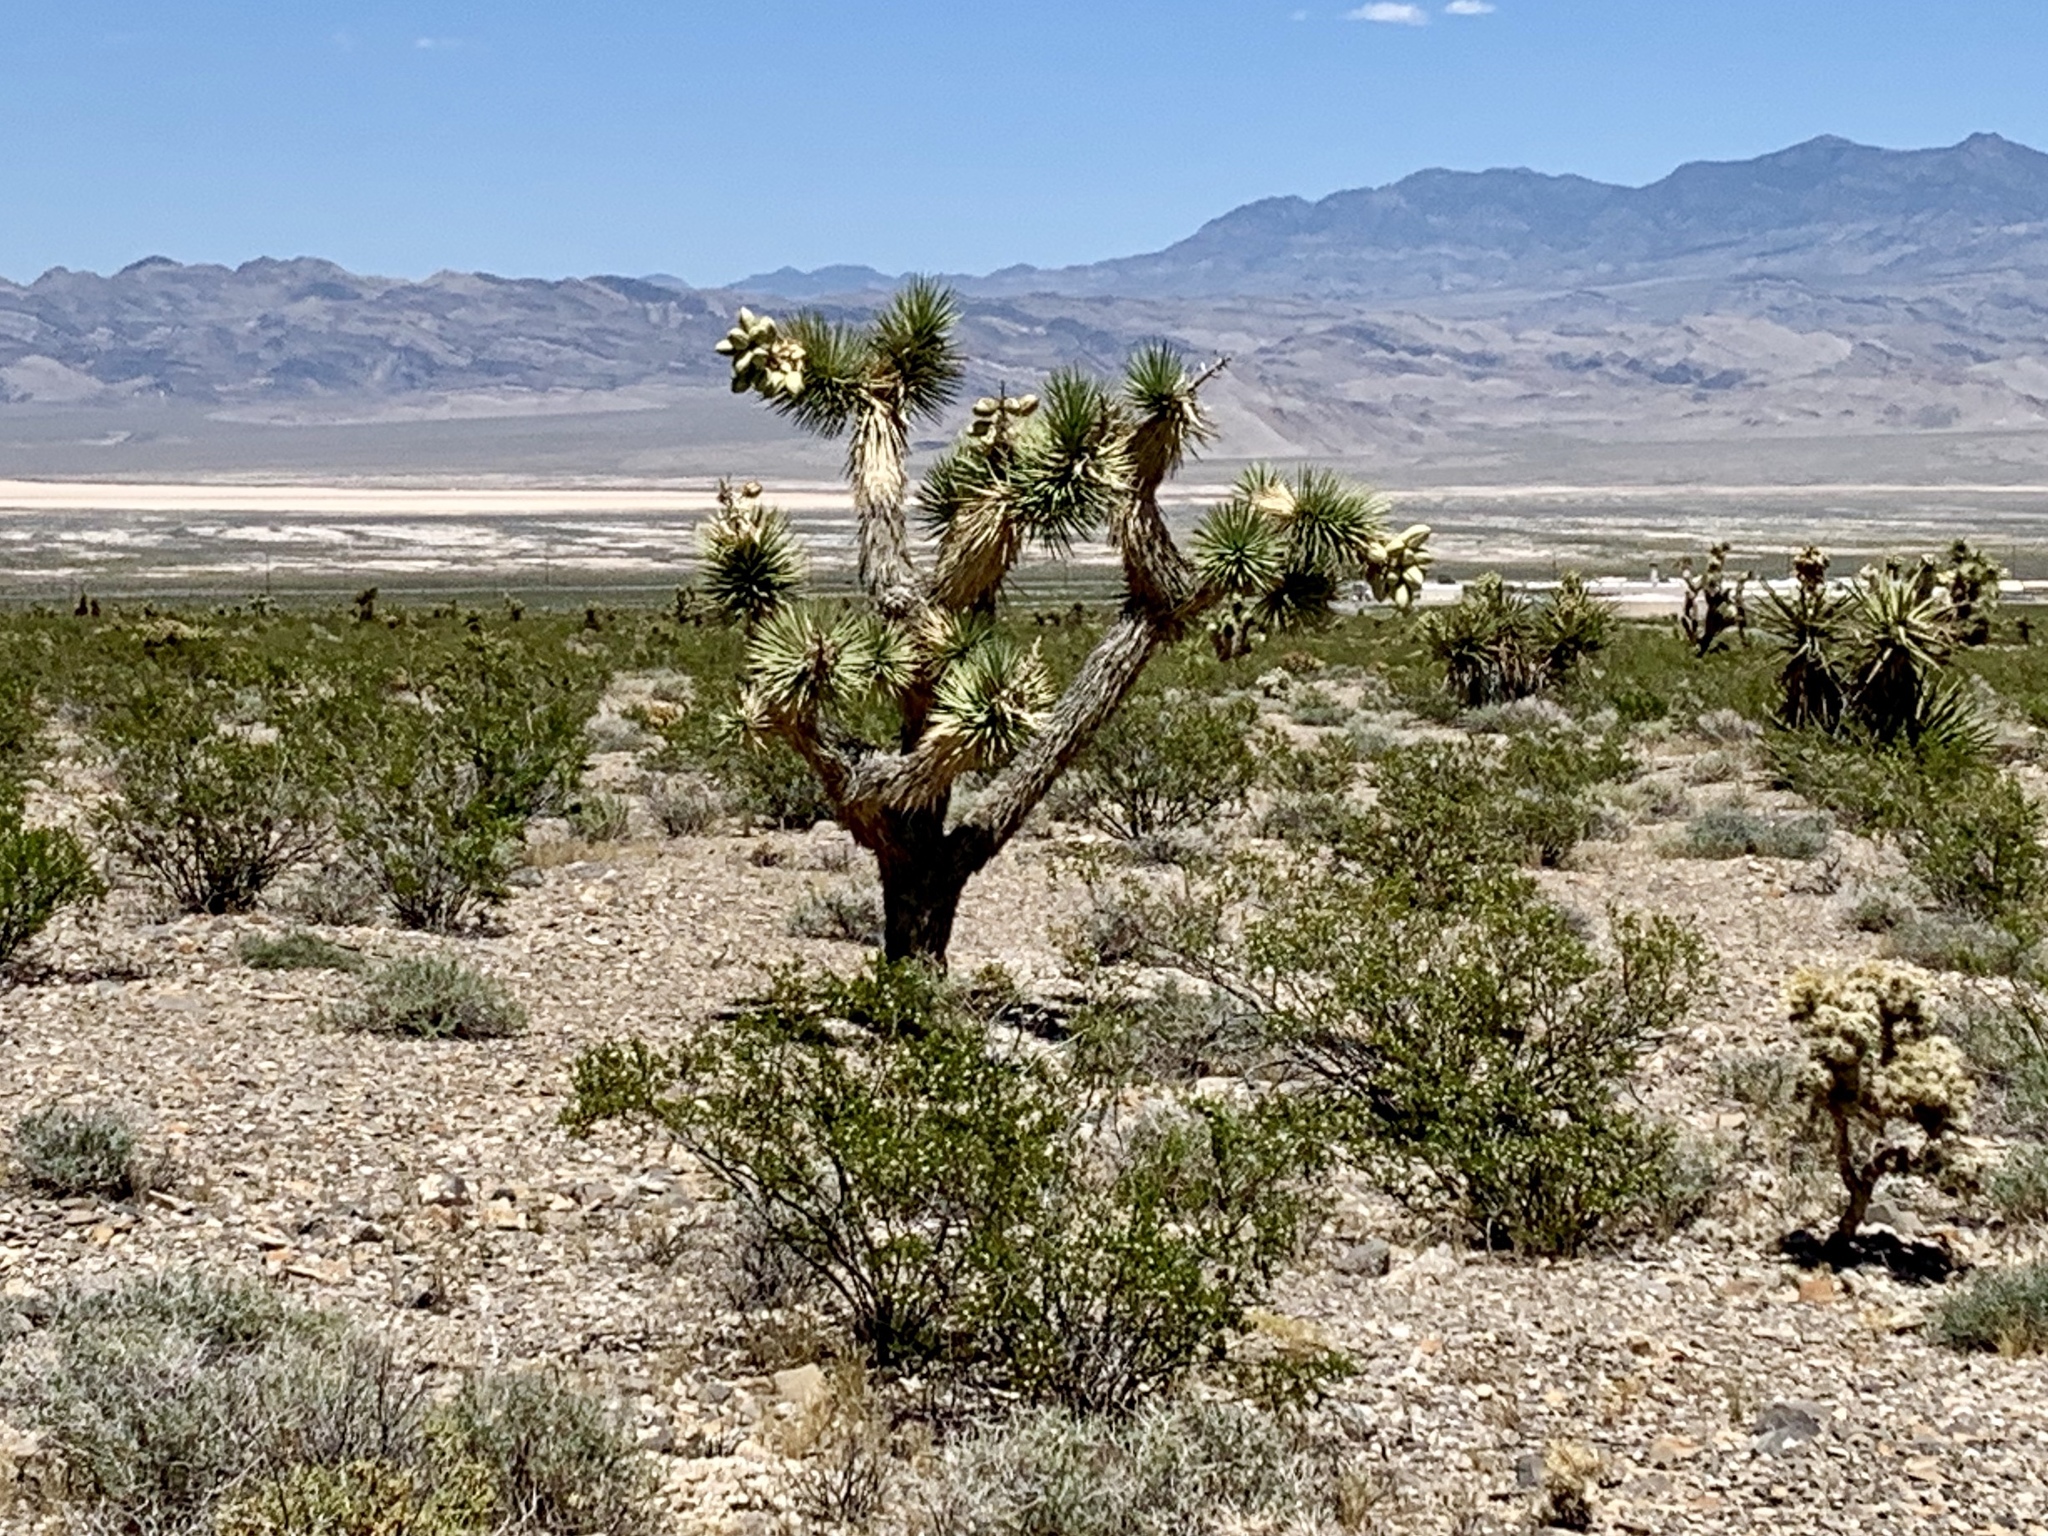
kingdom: Plantae
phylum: Tracheophyta
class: Liliopsida
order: Asparagales
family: Asparagaceae
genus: Yucca
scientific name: Yucca brevifolia
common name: Joshua tree
